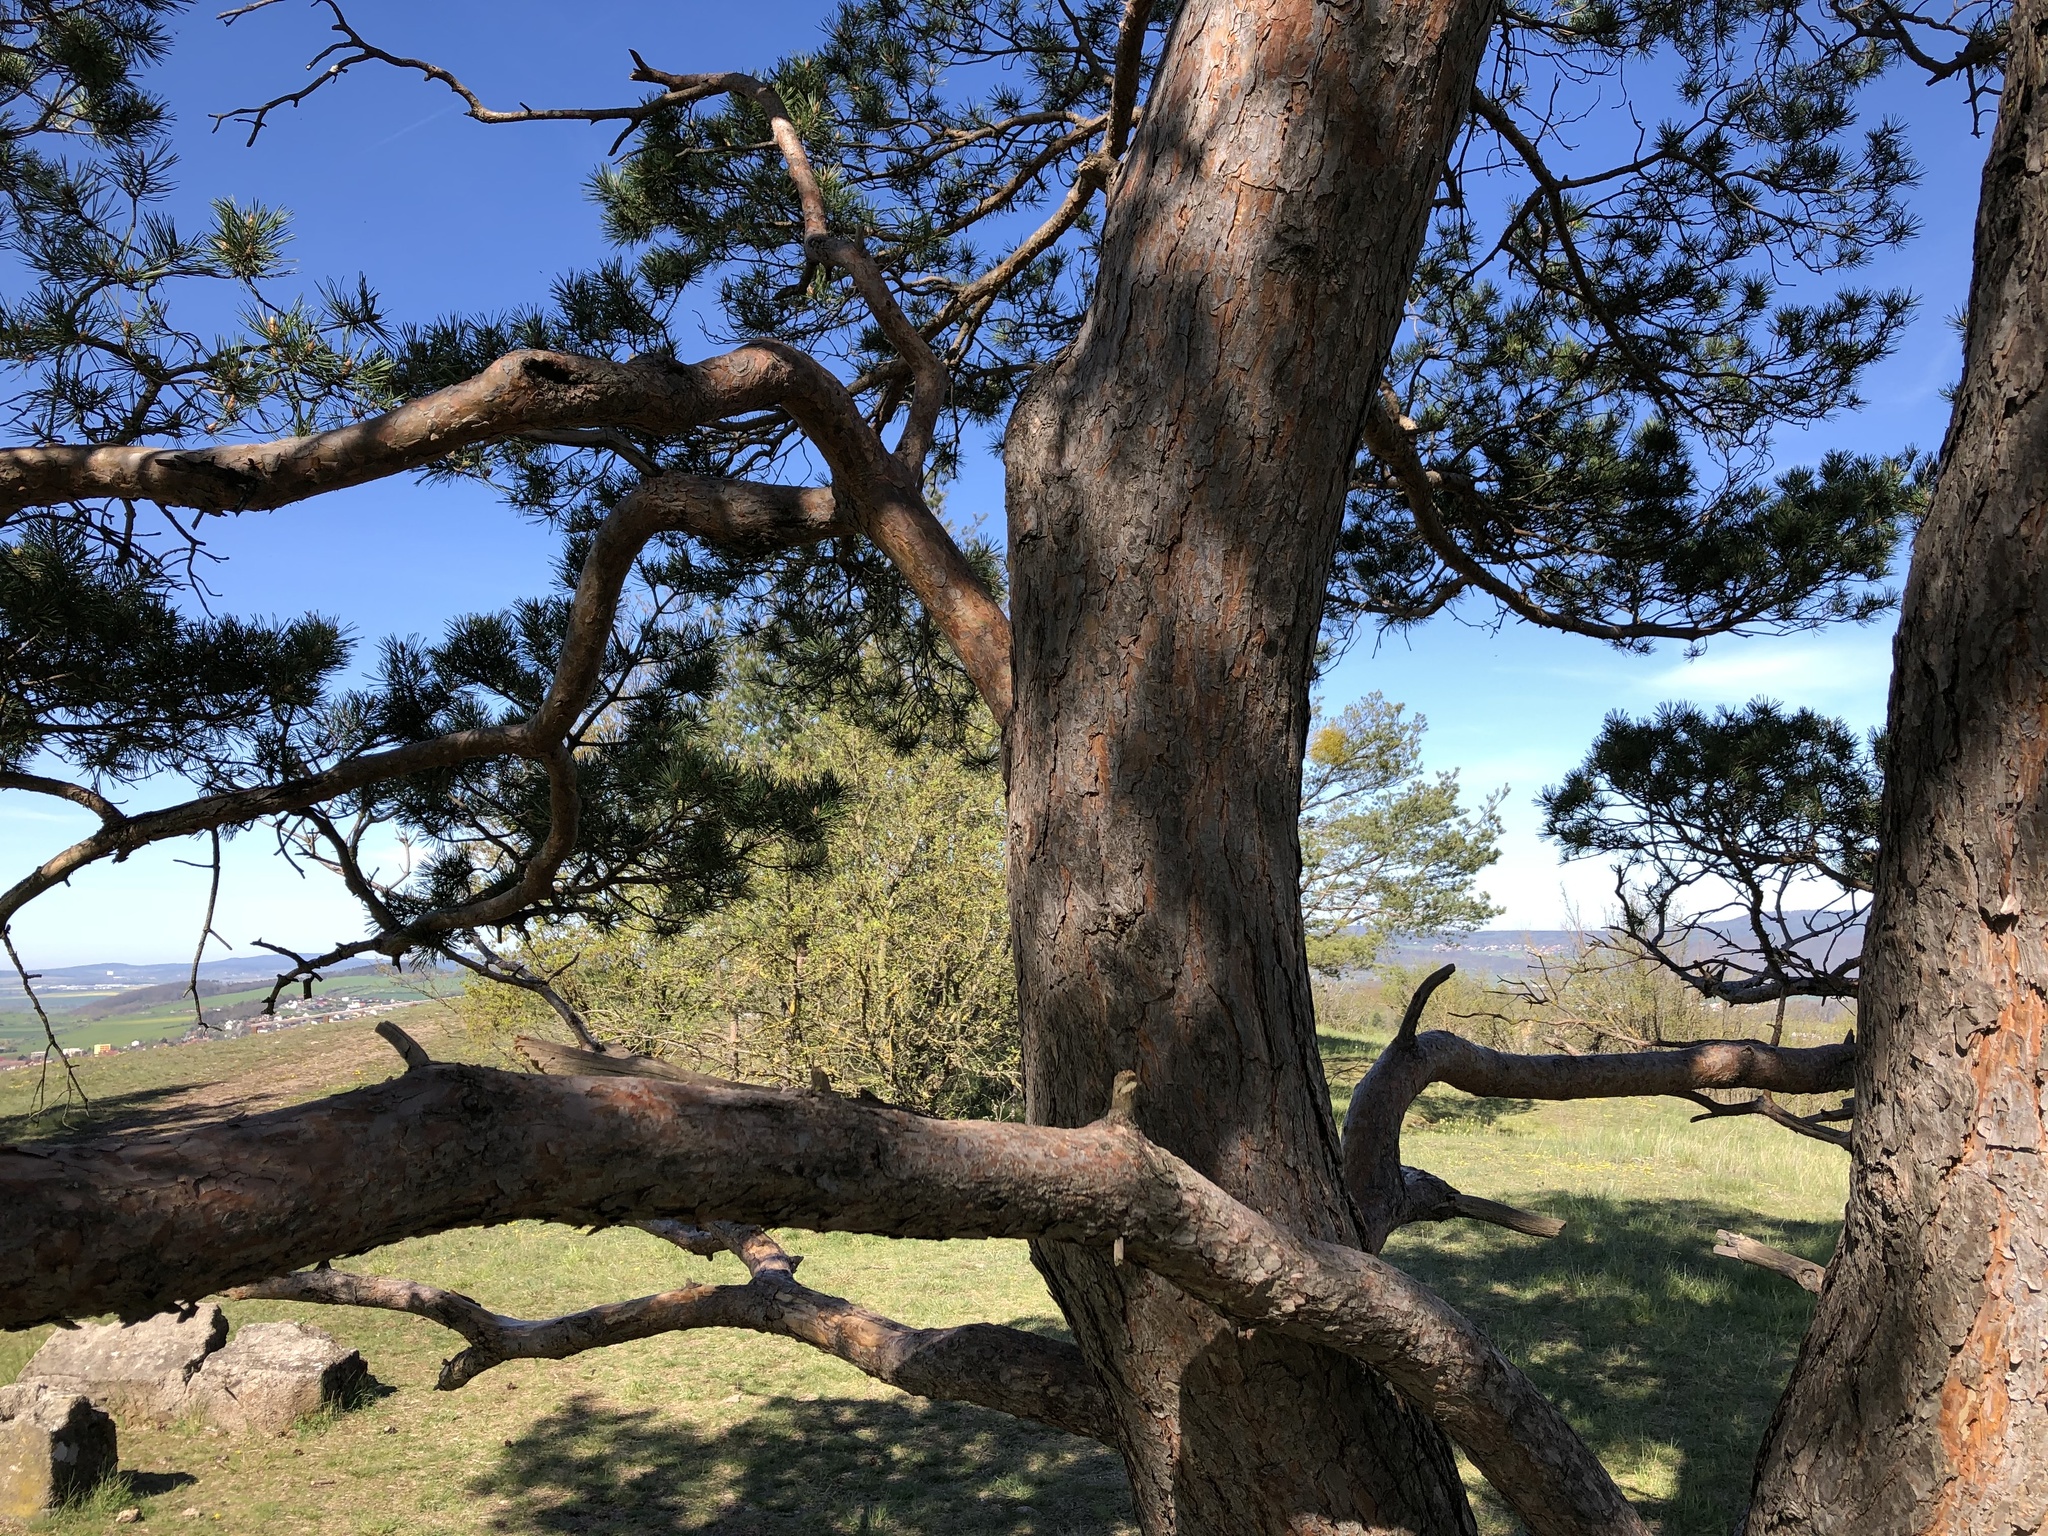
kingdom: Plantae
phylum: Tracheophyta
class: Pinopsida
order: Pinales
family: Pinaceae
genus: Pinus
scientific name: Pinus sylvestris
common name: Scots pine
